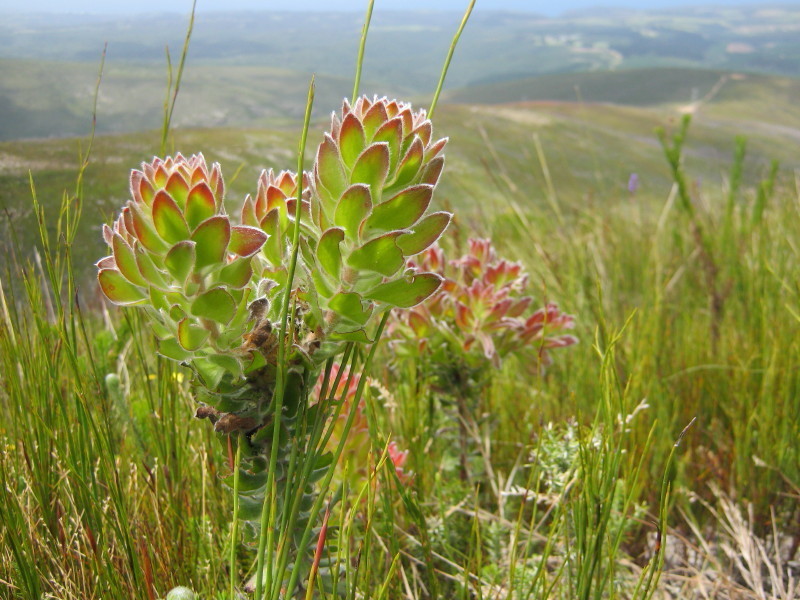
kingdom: Plantae
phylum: Tracheophyta
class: Magnoliopsida
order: Proteales
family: Proteaceae
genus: Mimetes
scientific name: Mimetes pauciflora
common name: Three-flowered pagoda
